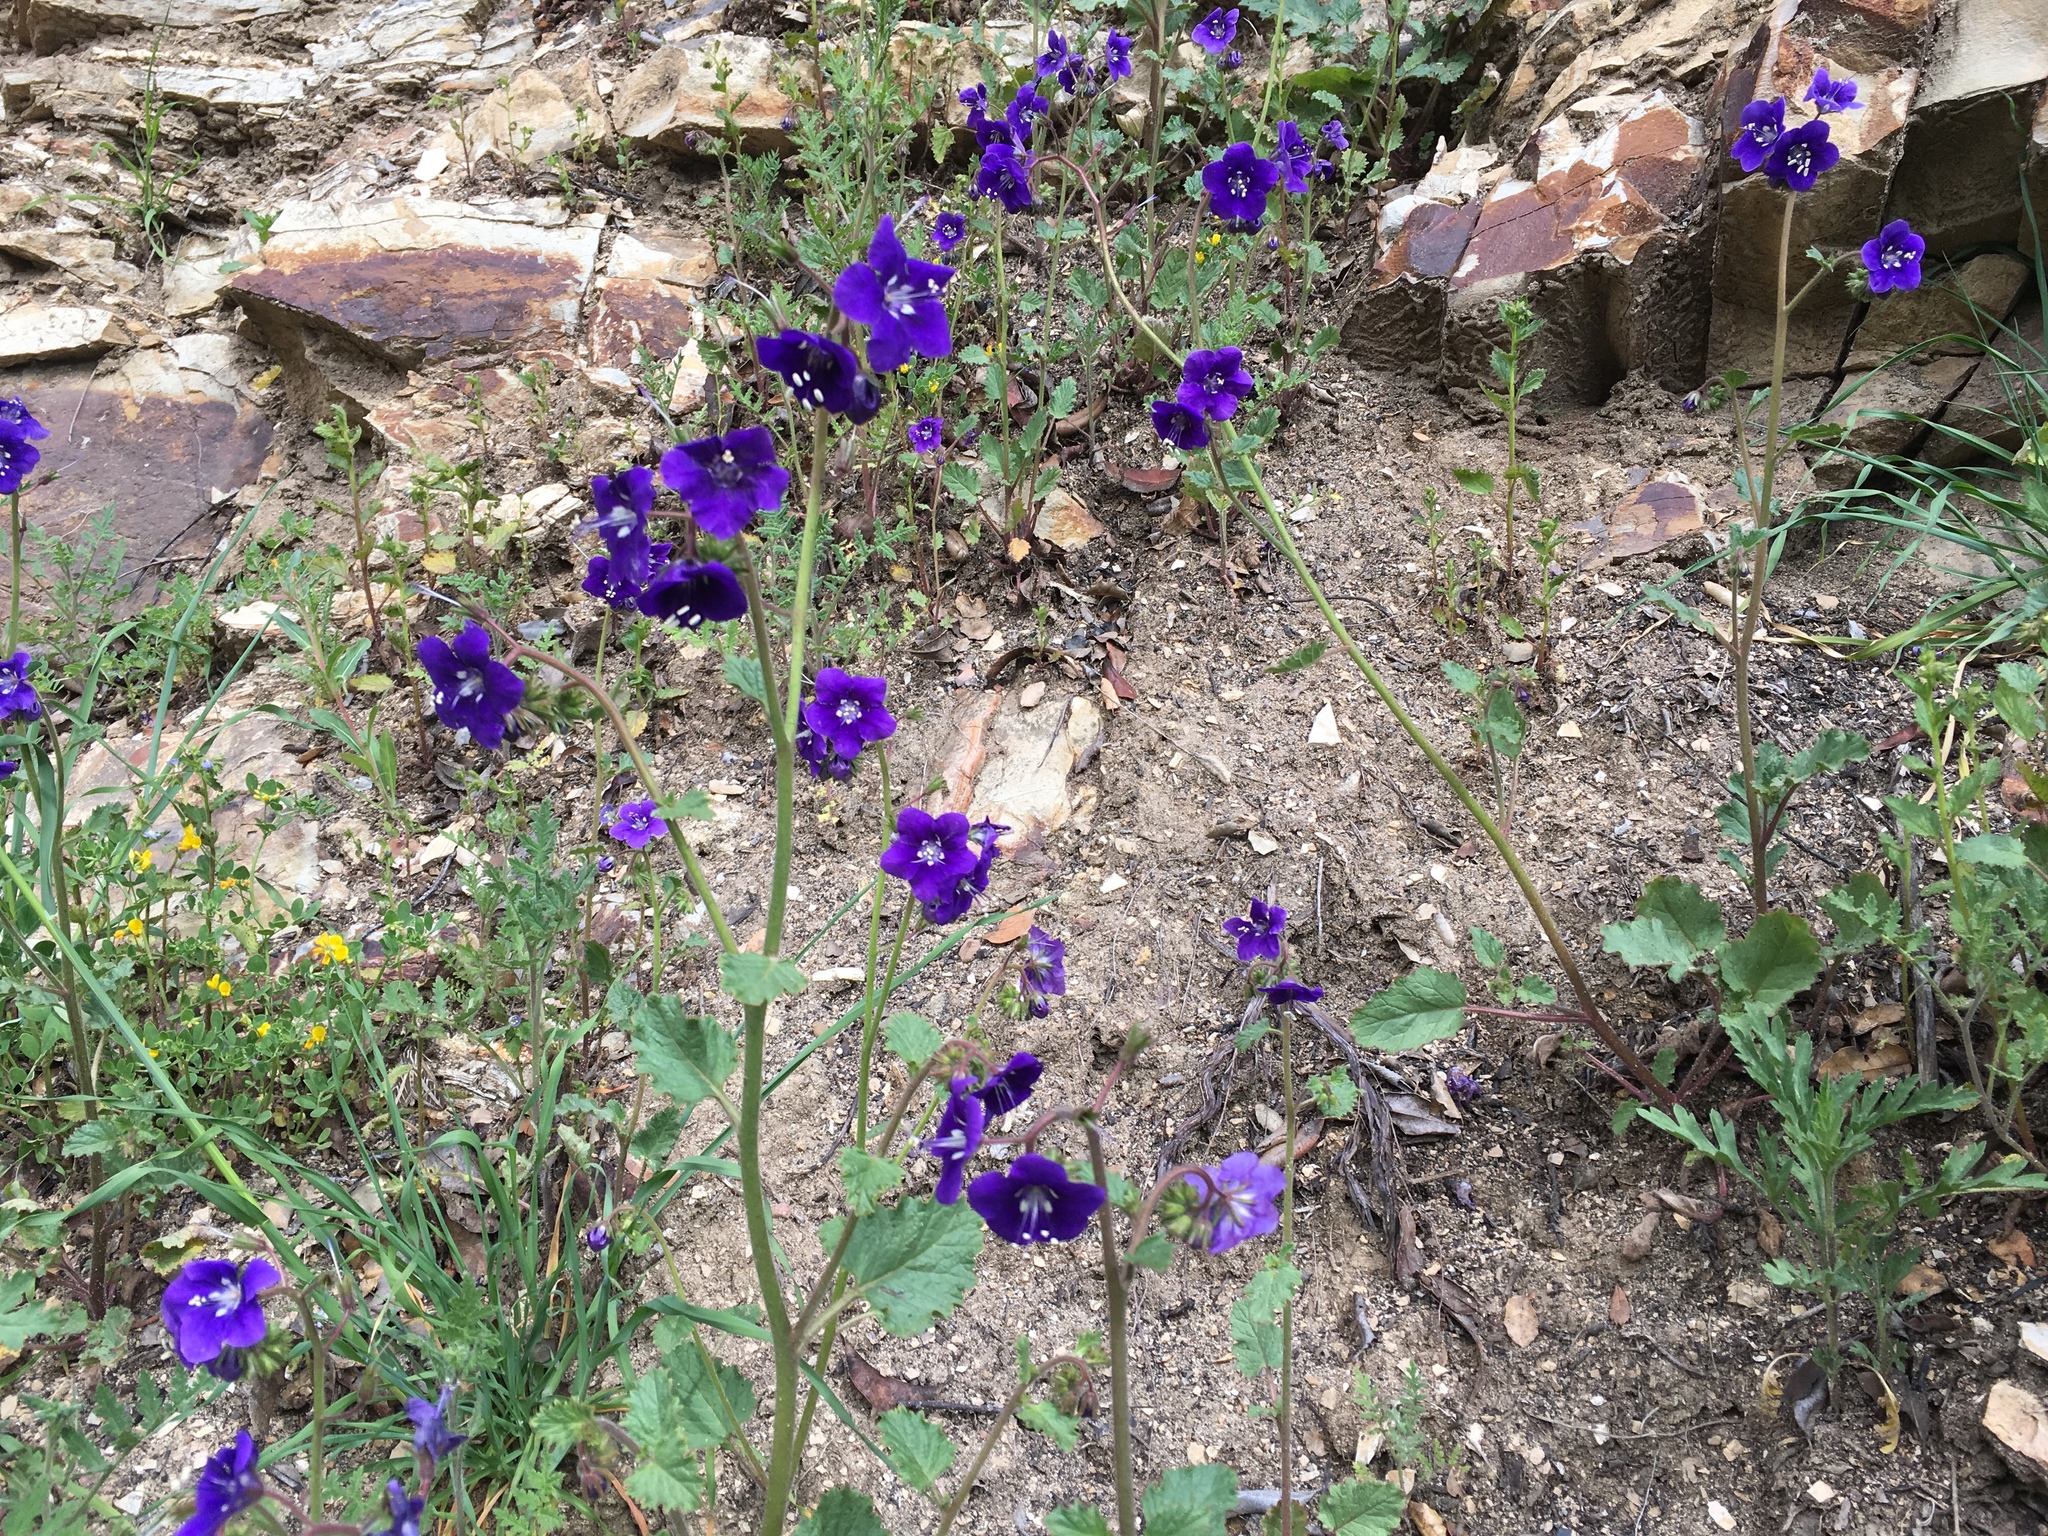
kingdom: Plantae
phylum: Tracheophyta
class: Magnoliopsida
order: Boraginales
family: Hydrophyllaceae
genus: Phacelia
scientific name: Phacelia parryi
